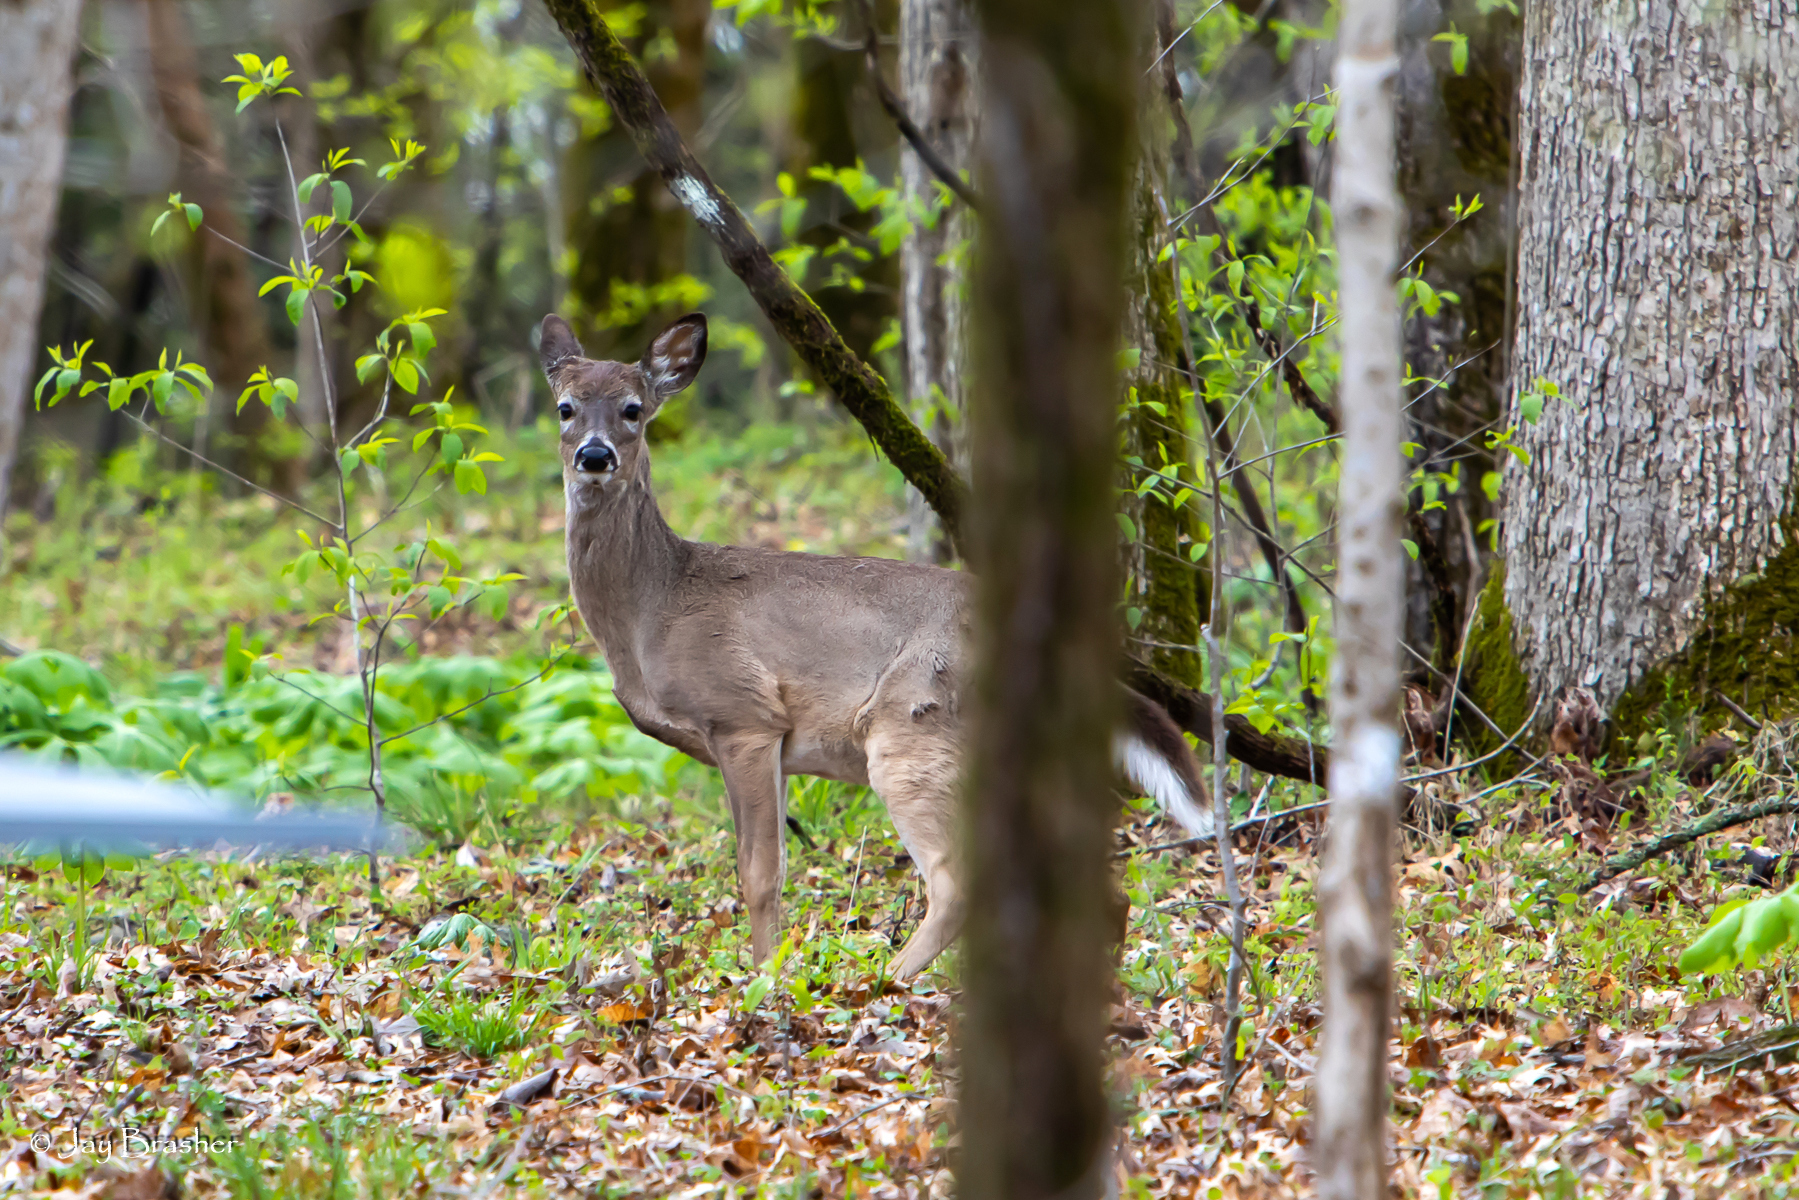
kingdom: Animalia
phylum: Chordata
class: Mammalia
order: Artiodactyla
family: Cervidae
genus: Odocoileus
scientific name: Odocoileus virginianus
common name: White-tailed deer
